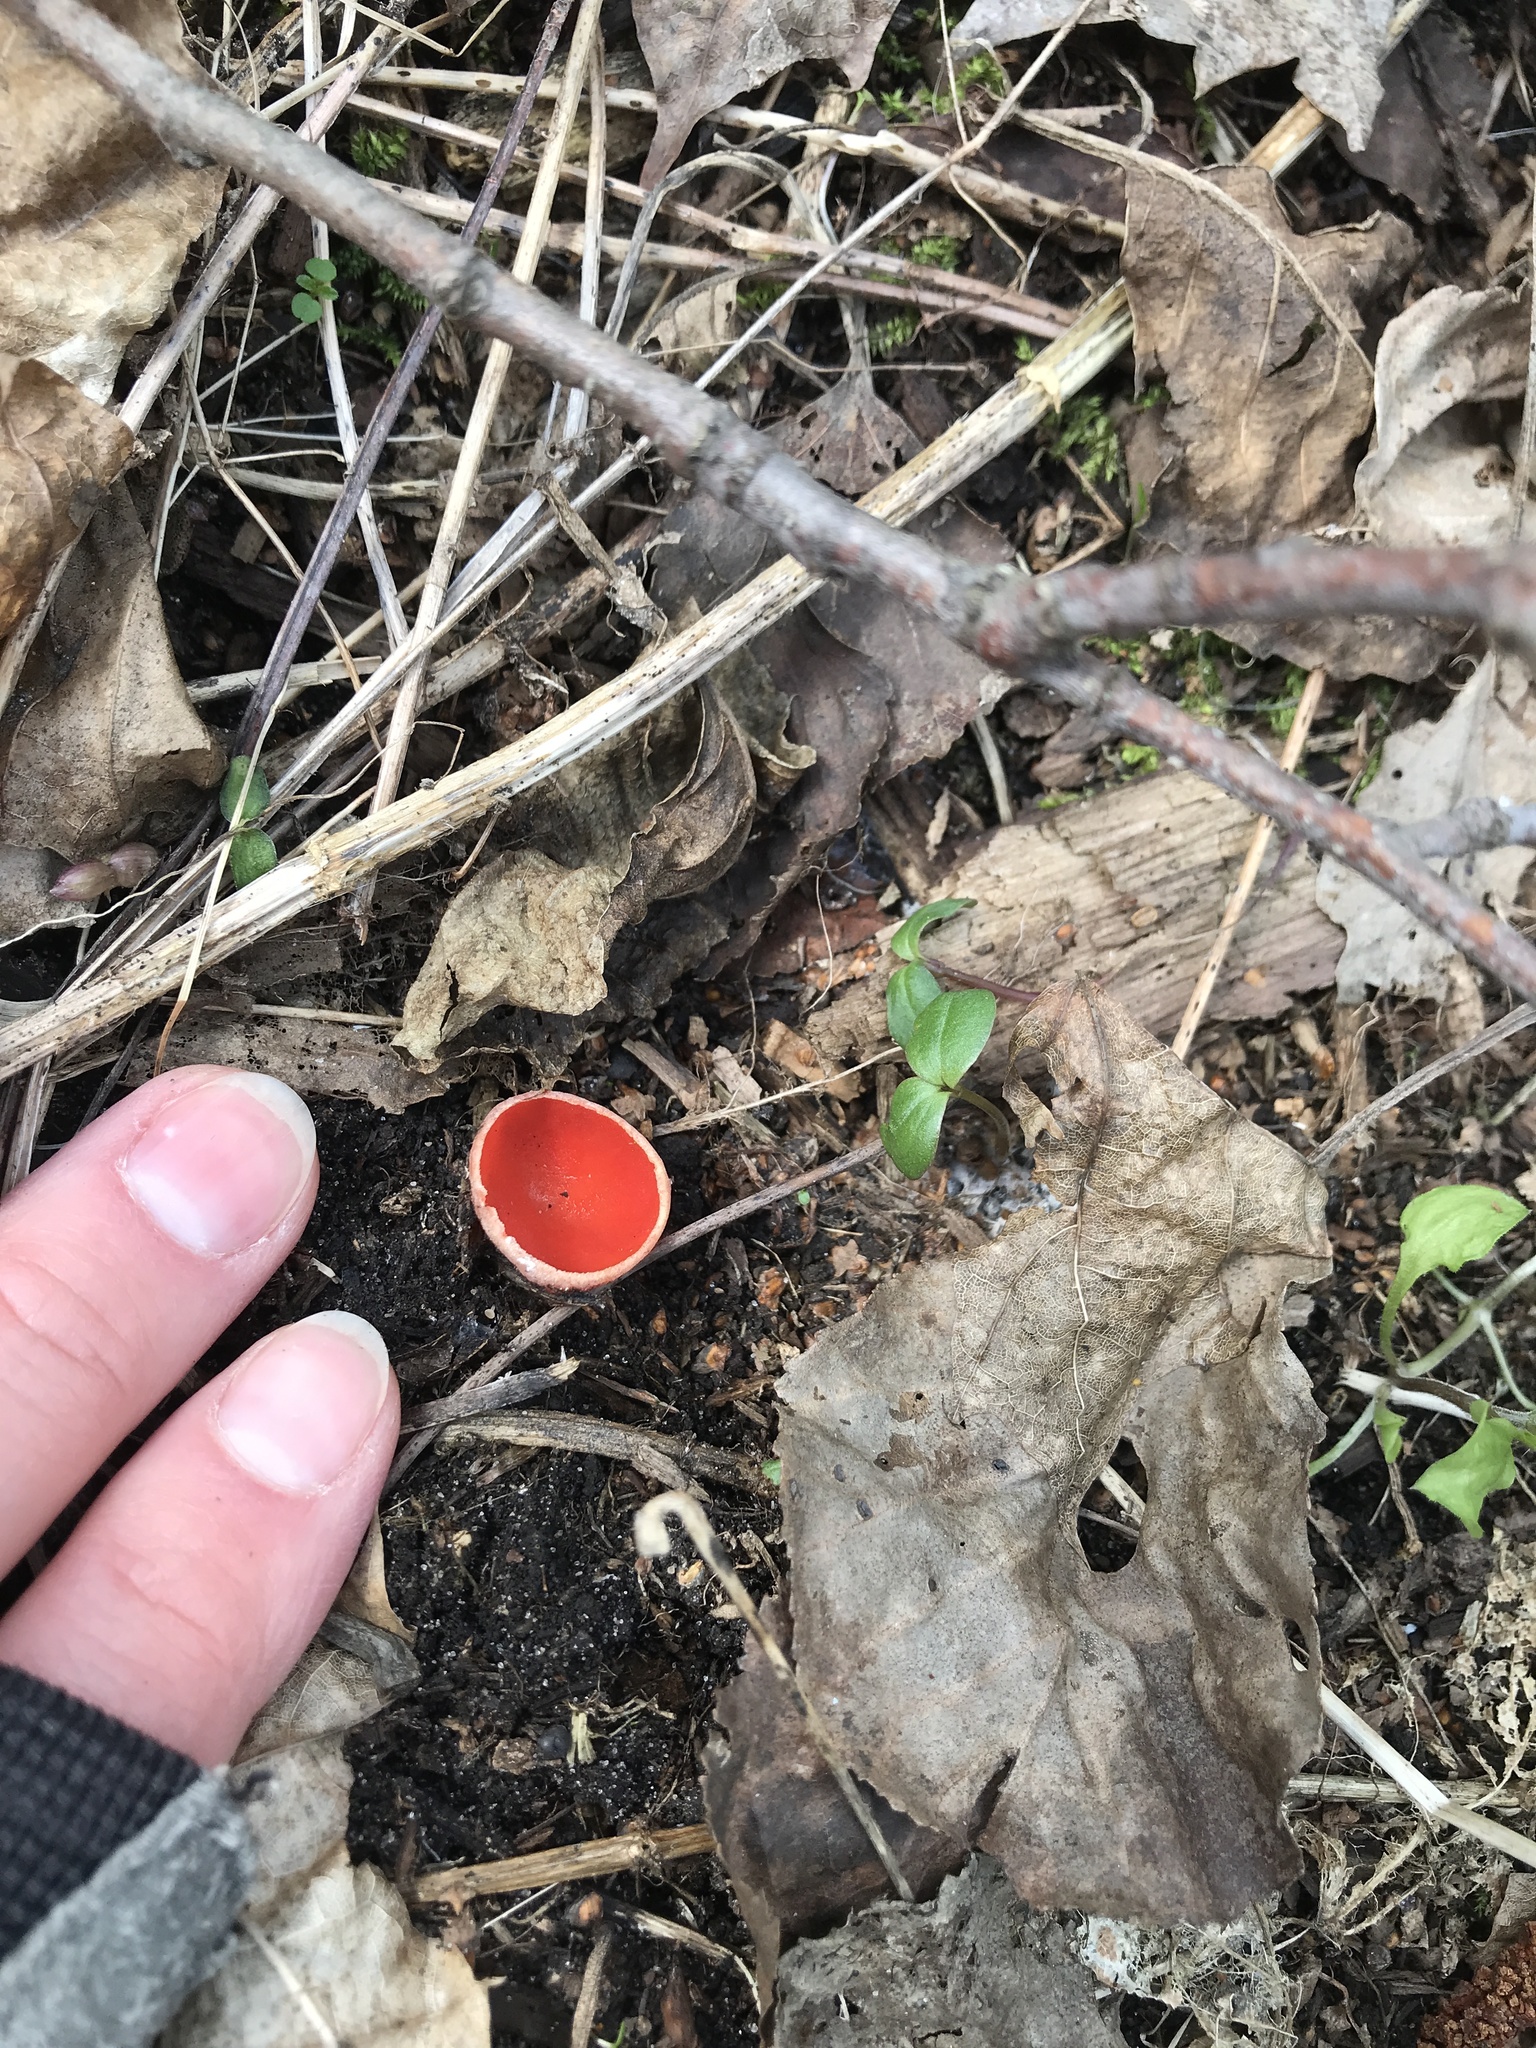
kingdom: Fungi
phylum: Ascomycota
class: Pezizomycetes
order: Pezizales
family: Sarcoscyphaceae
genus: Sarcoscypha
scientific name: Sarcoscypha
